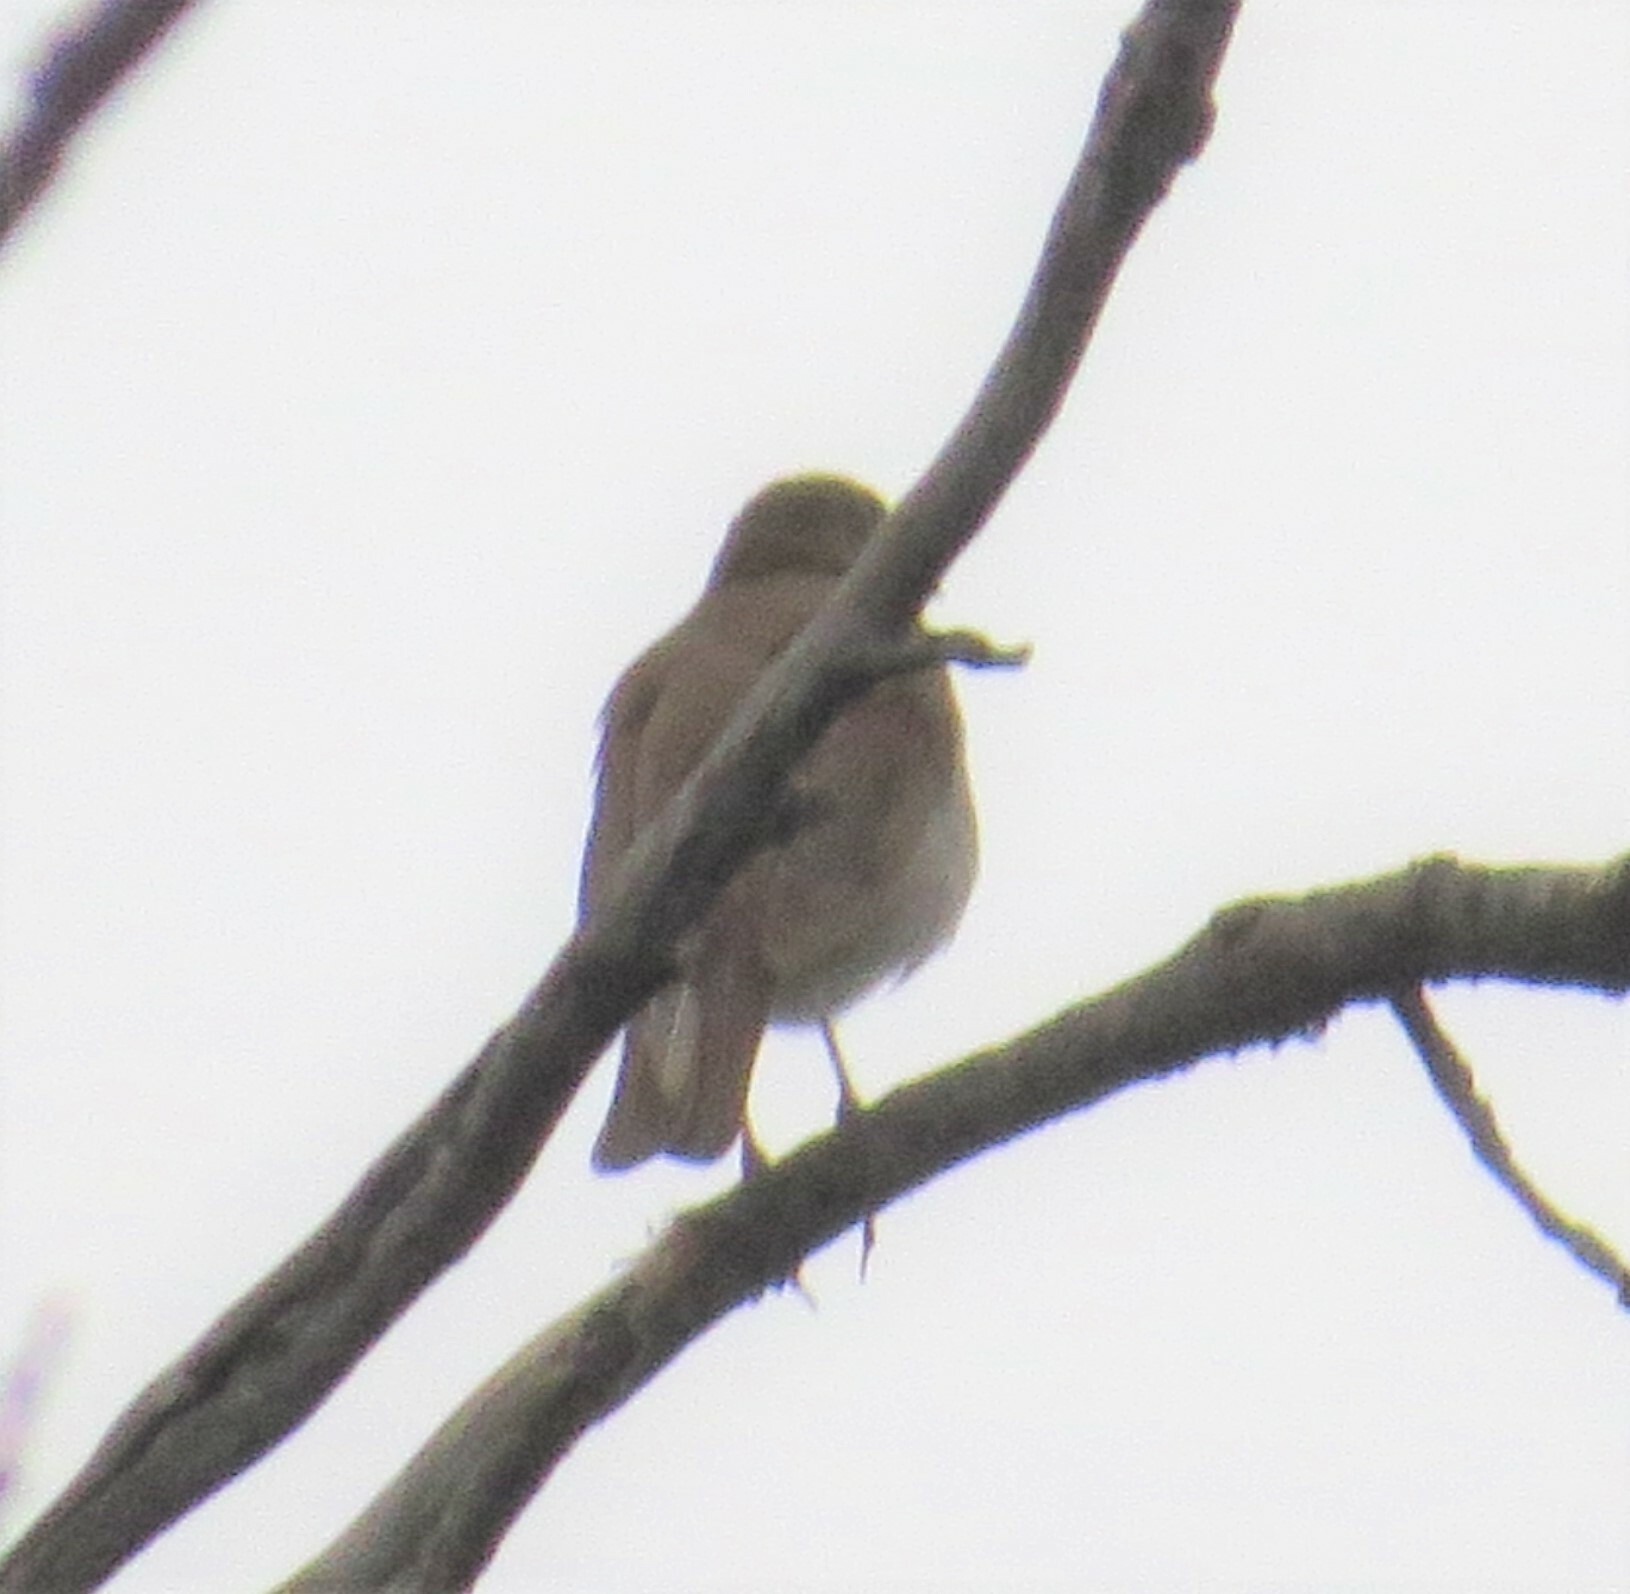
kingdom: Animalia
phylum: Chordata
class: Aves
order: Passeriformes
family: Turdidae
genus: Catharus
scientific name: Catharus fuscescens
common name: Veery
